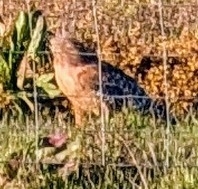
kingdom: Animalia
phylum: Chordata
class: Aves
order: Accipitriformes
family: Accipitridae
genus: Buteo
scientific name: Buteo lineatus
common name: Red-shouldered hawk
